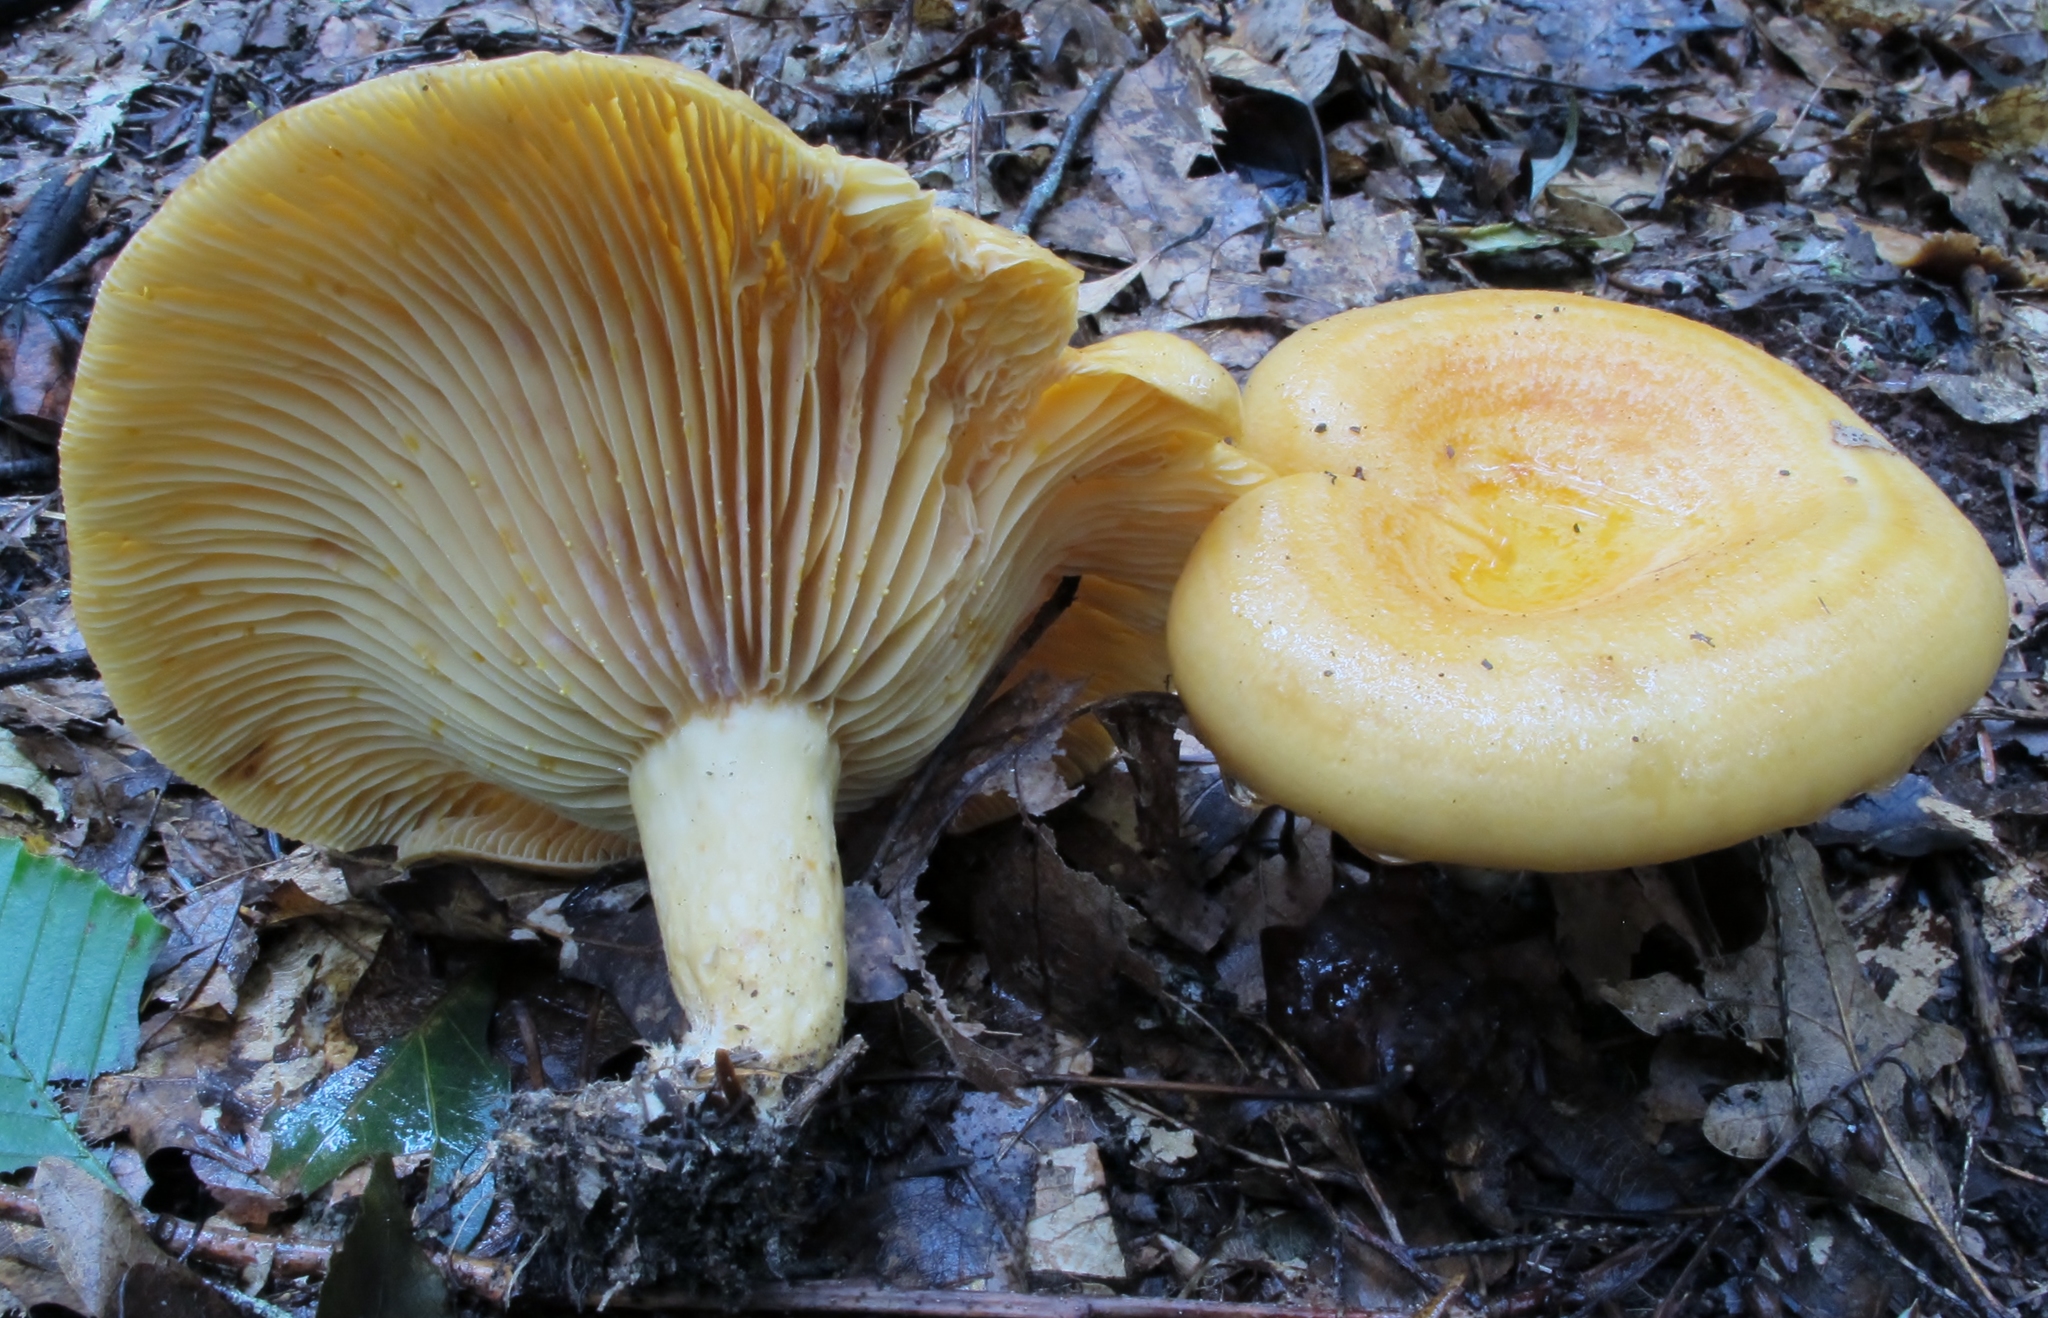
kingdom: Fungi
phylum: Basidiomycota
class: Agaricomycetes
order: Russulales
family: Russulaceae
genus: Lactarius
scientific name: Lactarius croceus
